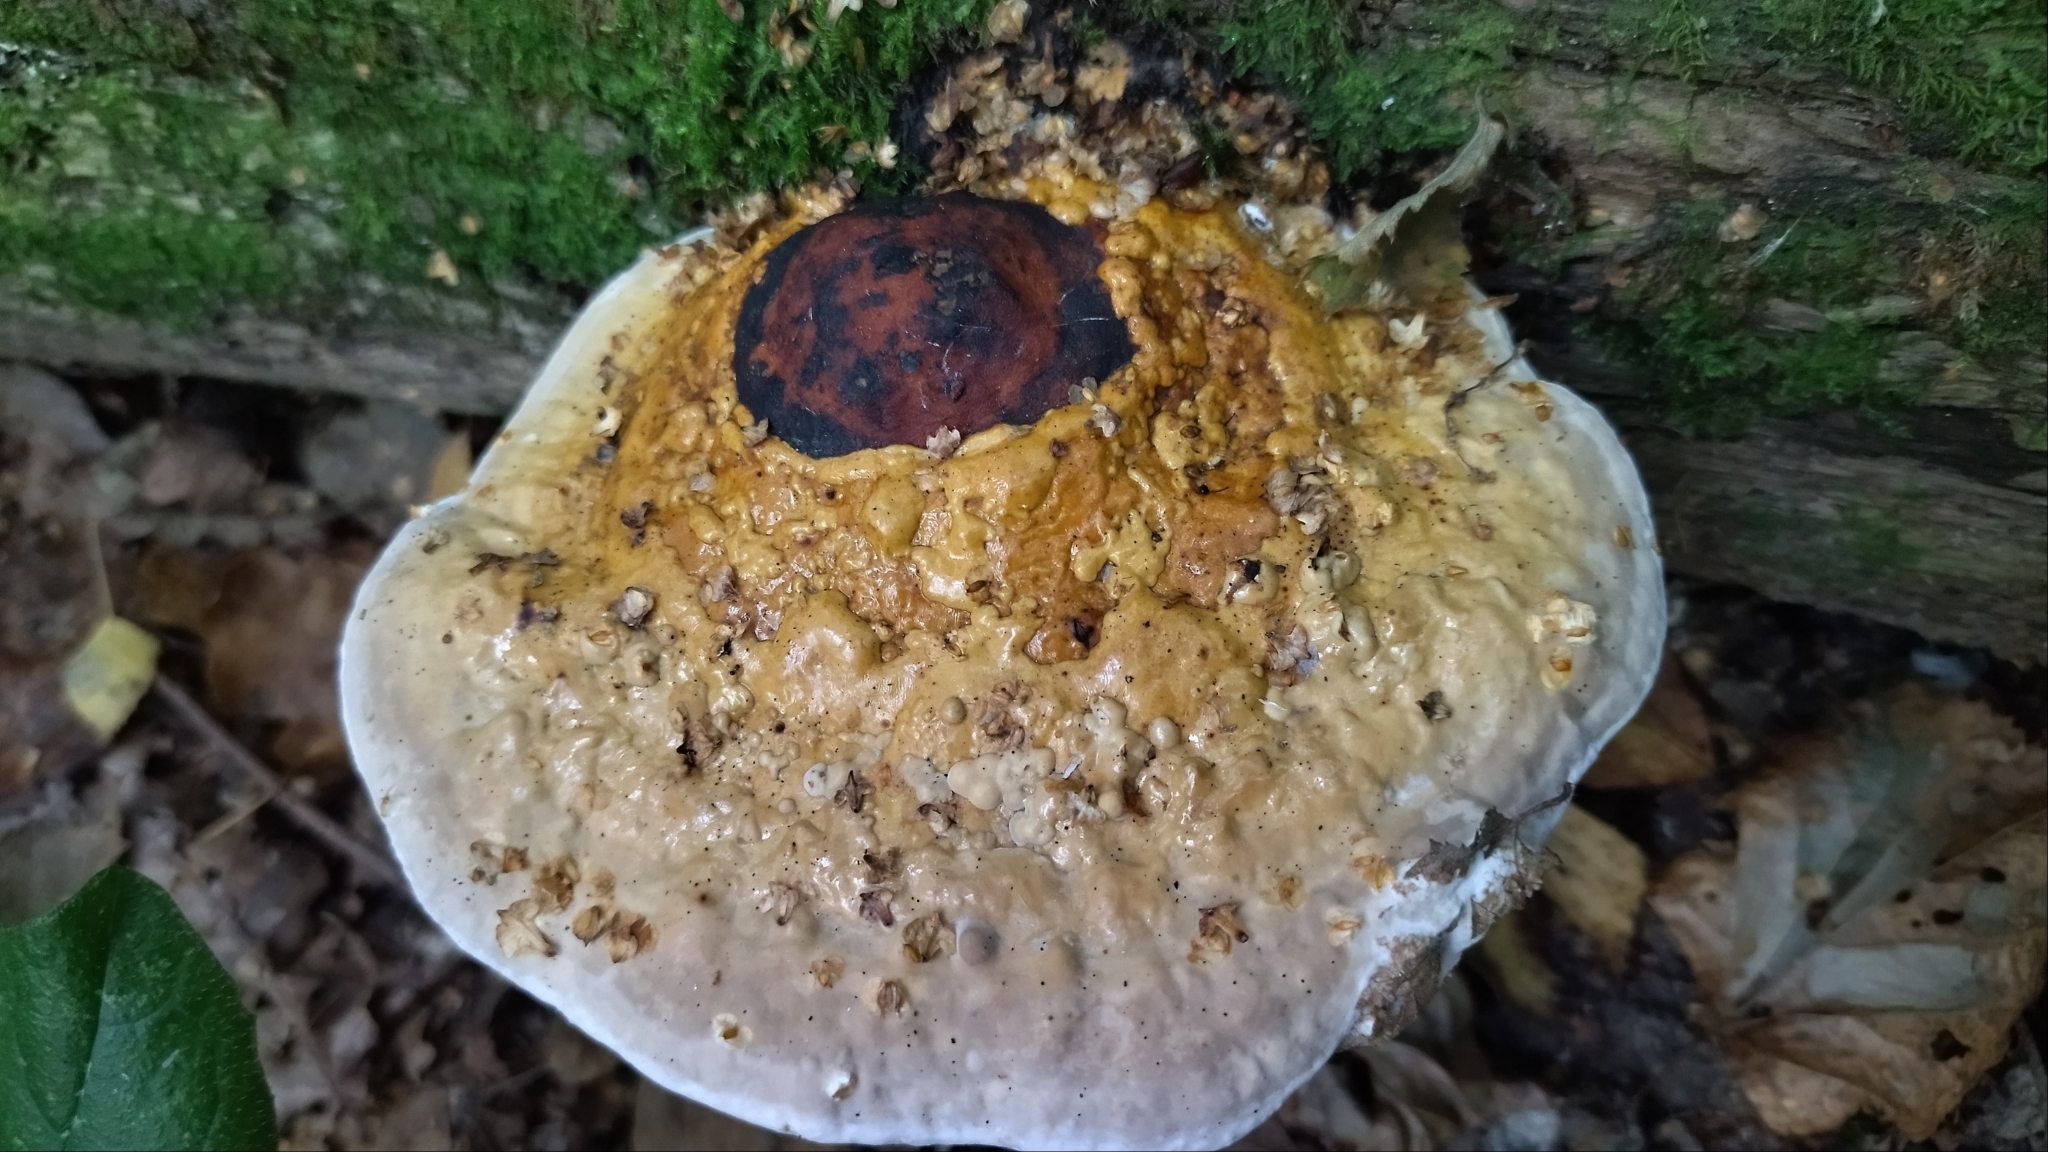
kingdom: Fungi
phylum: Basidiomycota
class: Agaricomycetes
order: Polyporales
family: Fomitopsidaceae
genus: Fomitopsis
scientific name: Fomitopsis pinicola
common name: Red-belted bracket
